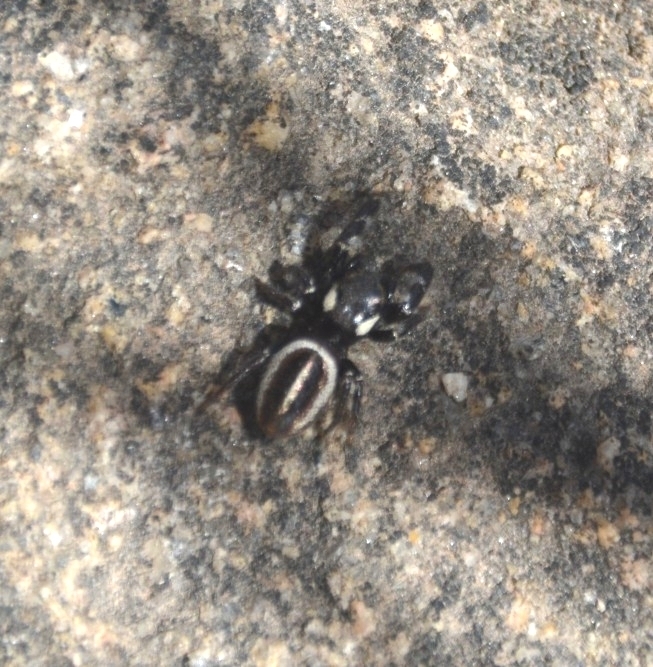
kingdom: Animalia
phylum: Arthropoda
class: Arachnida
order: Araneae
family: Salticidae
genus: Dendryphantes
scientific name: Dendryphantes mordax
